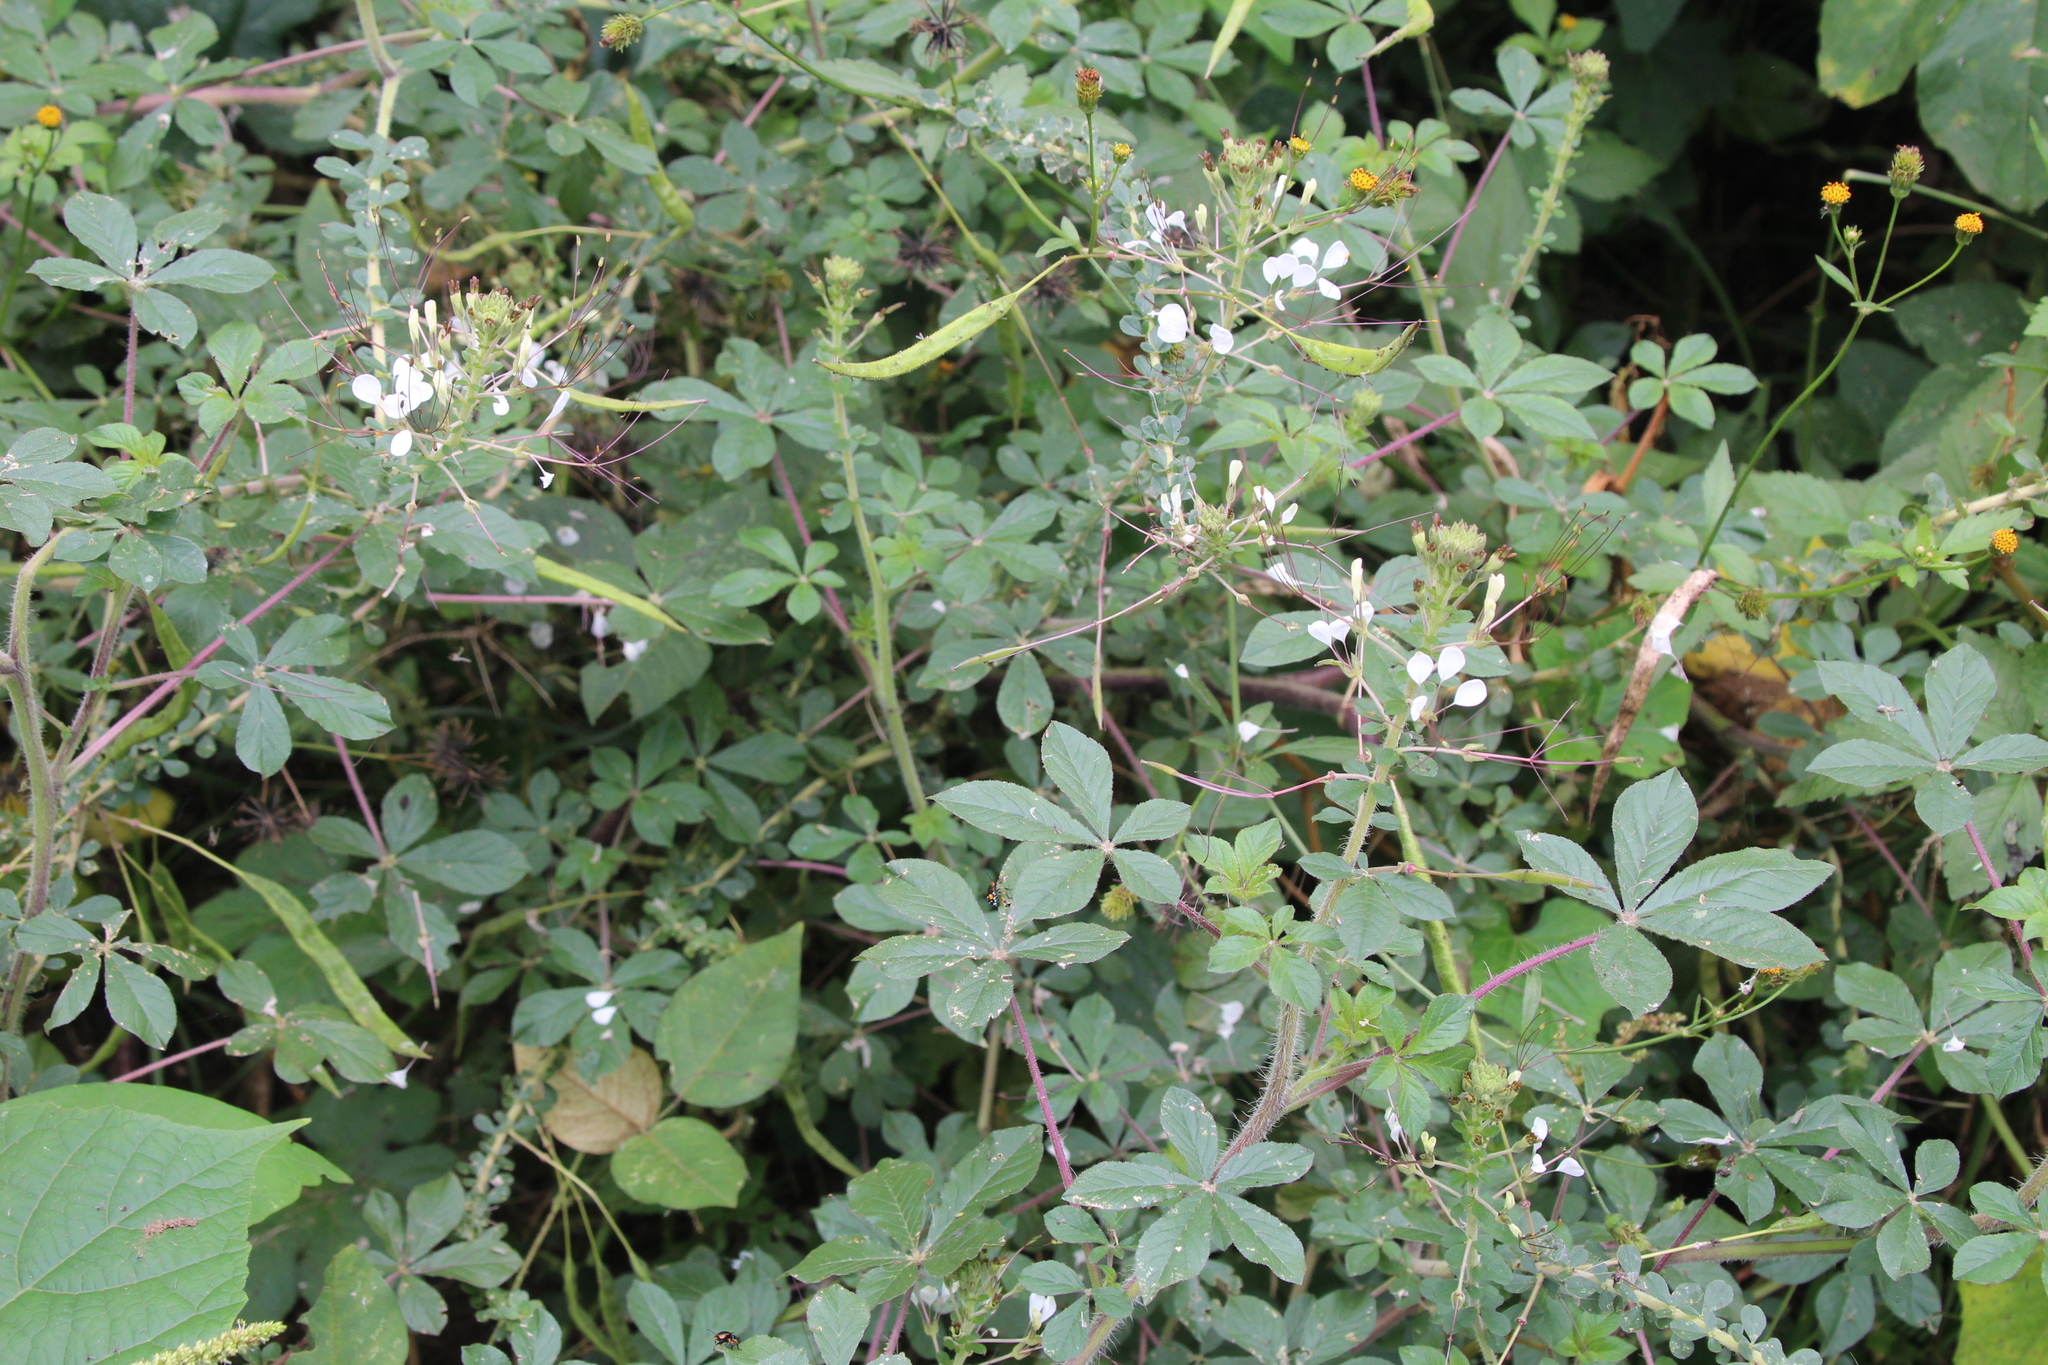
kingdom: Plantae
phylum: Tracheophyta
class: Magnoliopsida
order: Brassicales
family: Cleomaceae
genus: Gynandropsis
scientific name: Gynandropsis gynandra
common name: Spiderwisp
